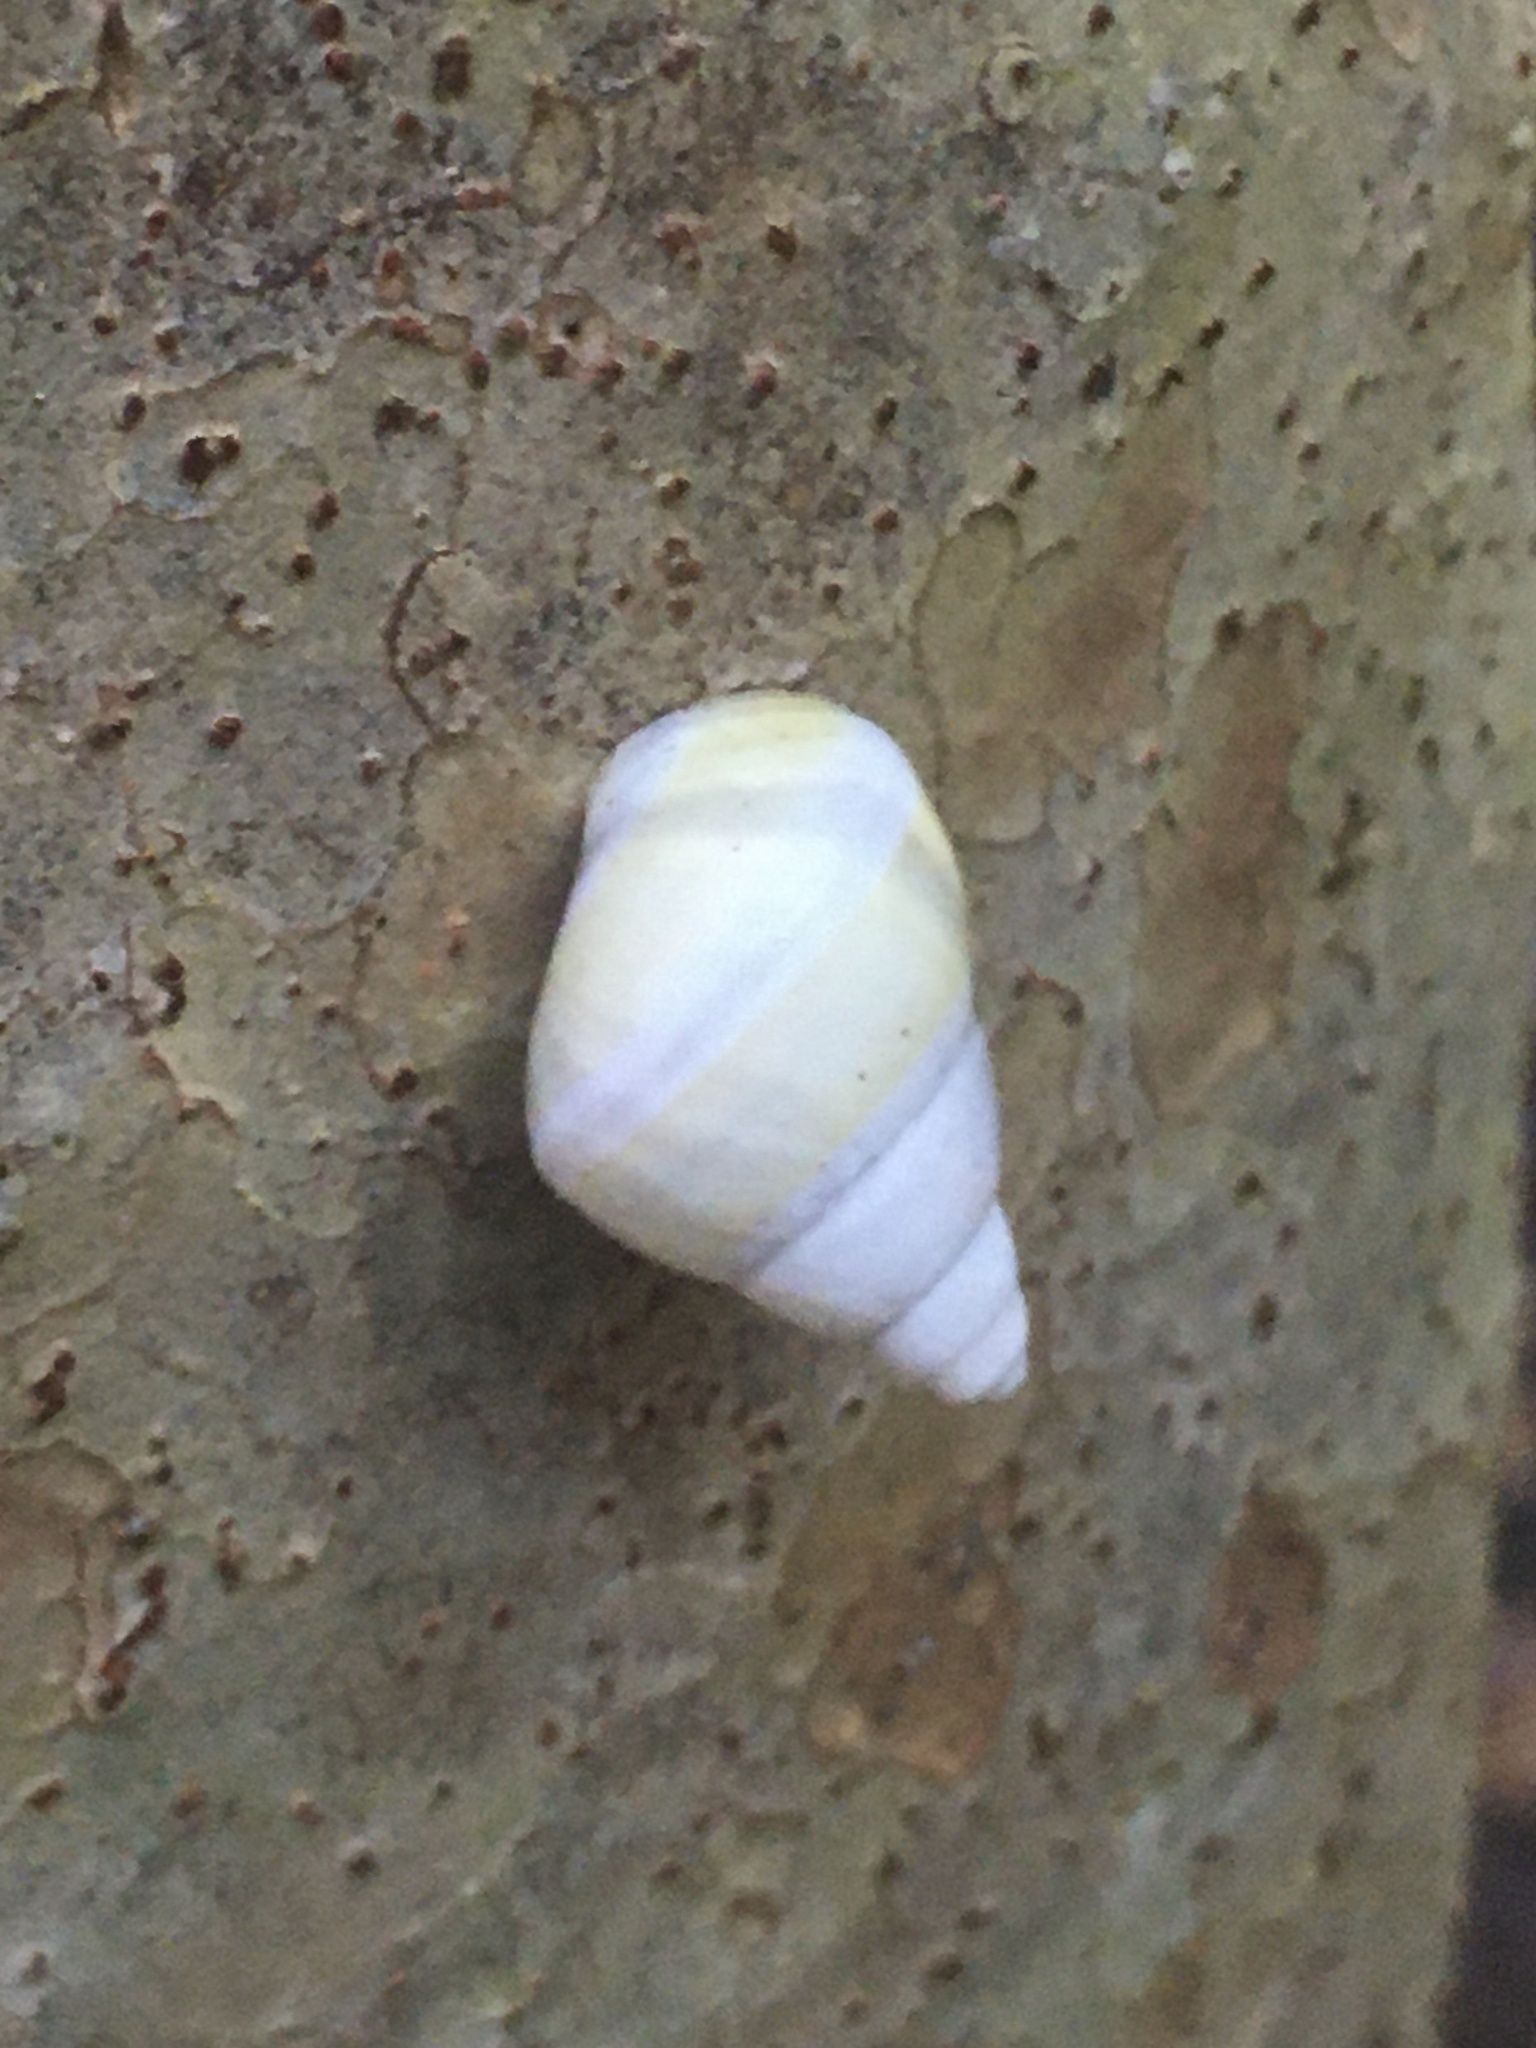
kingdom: Animalia
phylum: Mollusca
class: Gastropoda
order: Stylommatophora
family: Orthalicidae
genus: Liguus
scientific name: Liguus fasciatus
